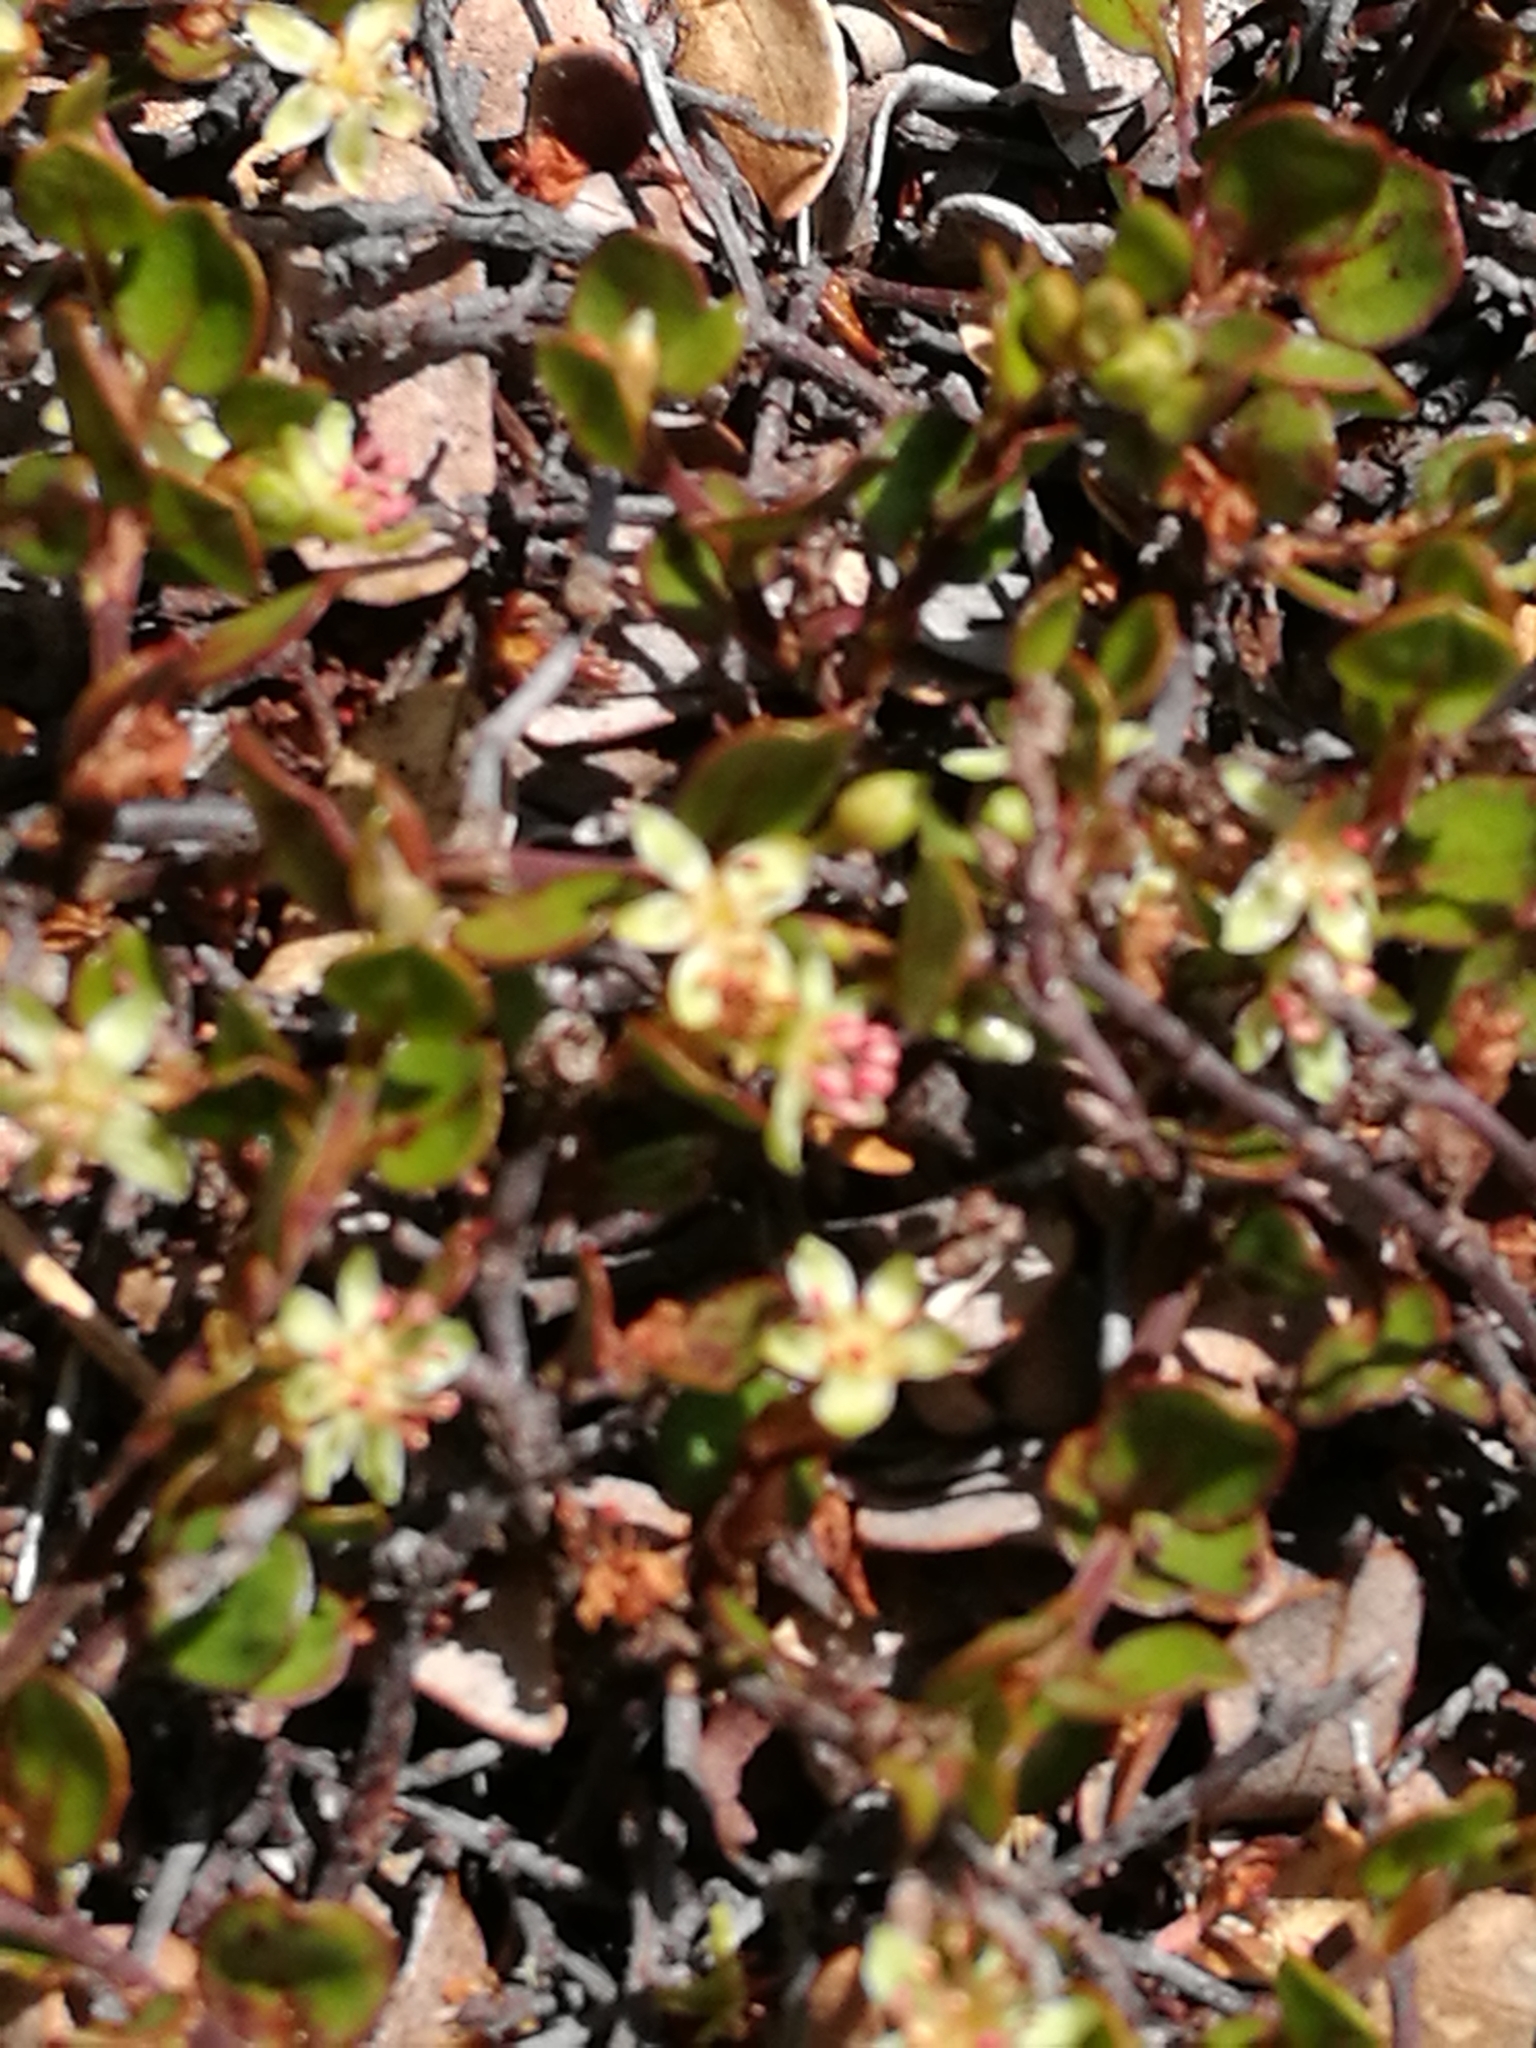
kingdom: Plantae
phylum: Tracheophyta
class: Magnoliopsida
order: Caryophyllales
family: Polygonaceae
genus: Muehlenbeckia
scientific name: Muehlenbeckia axillaris
